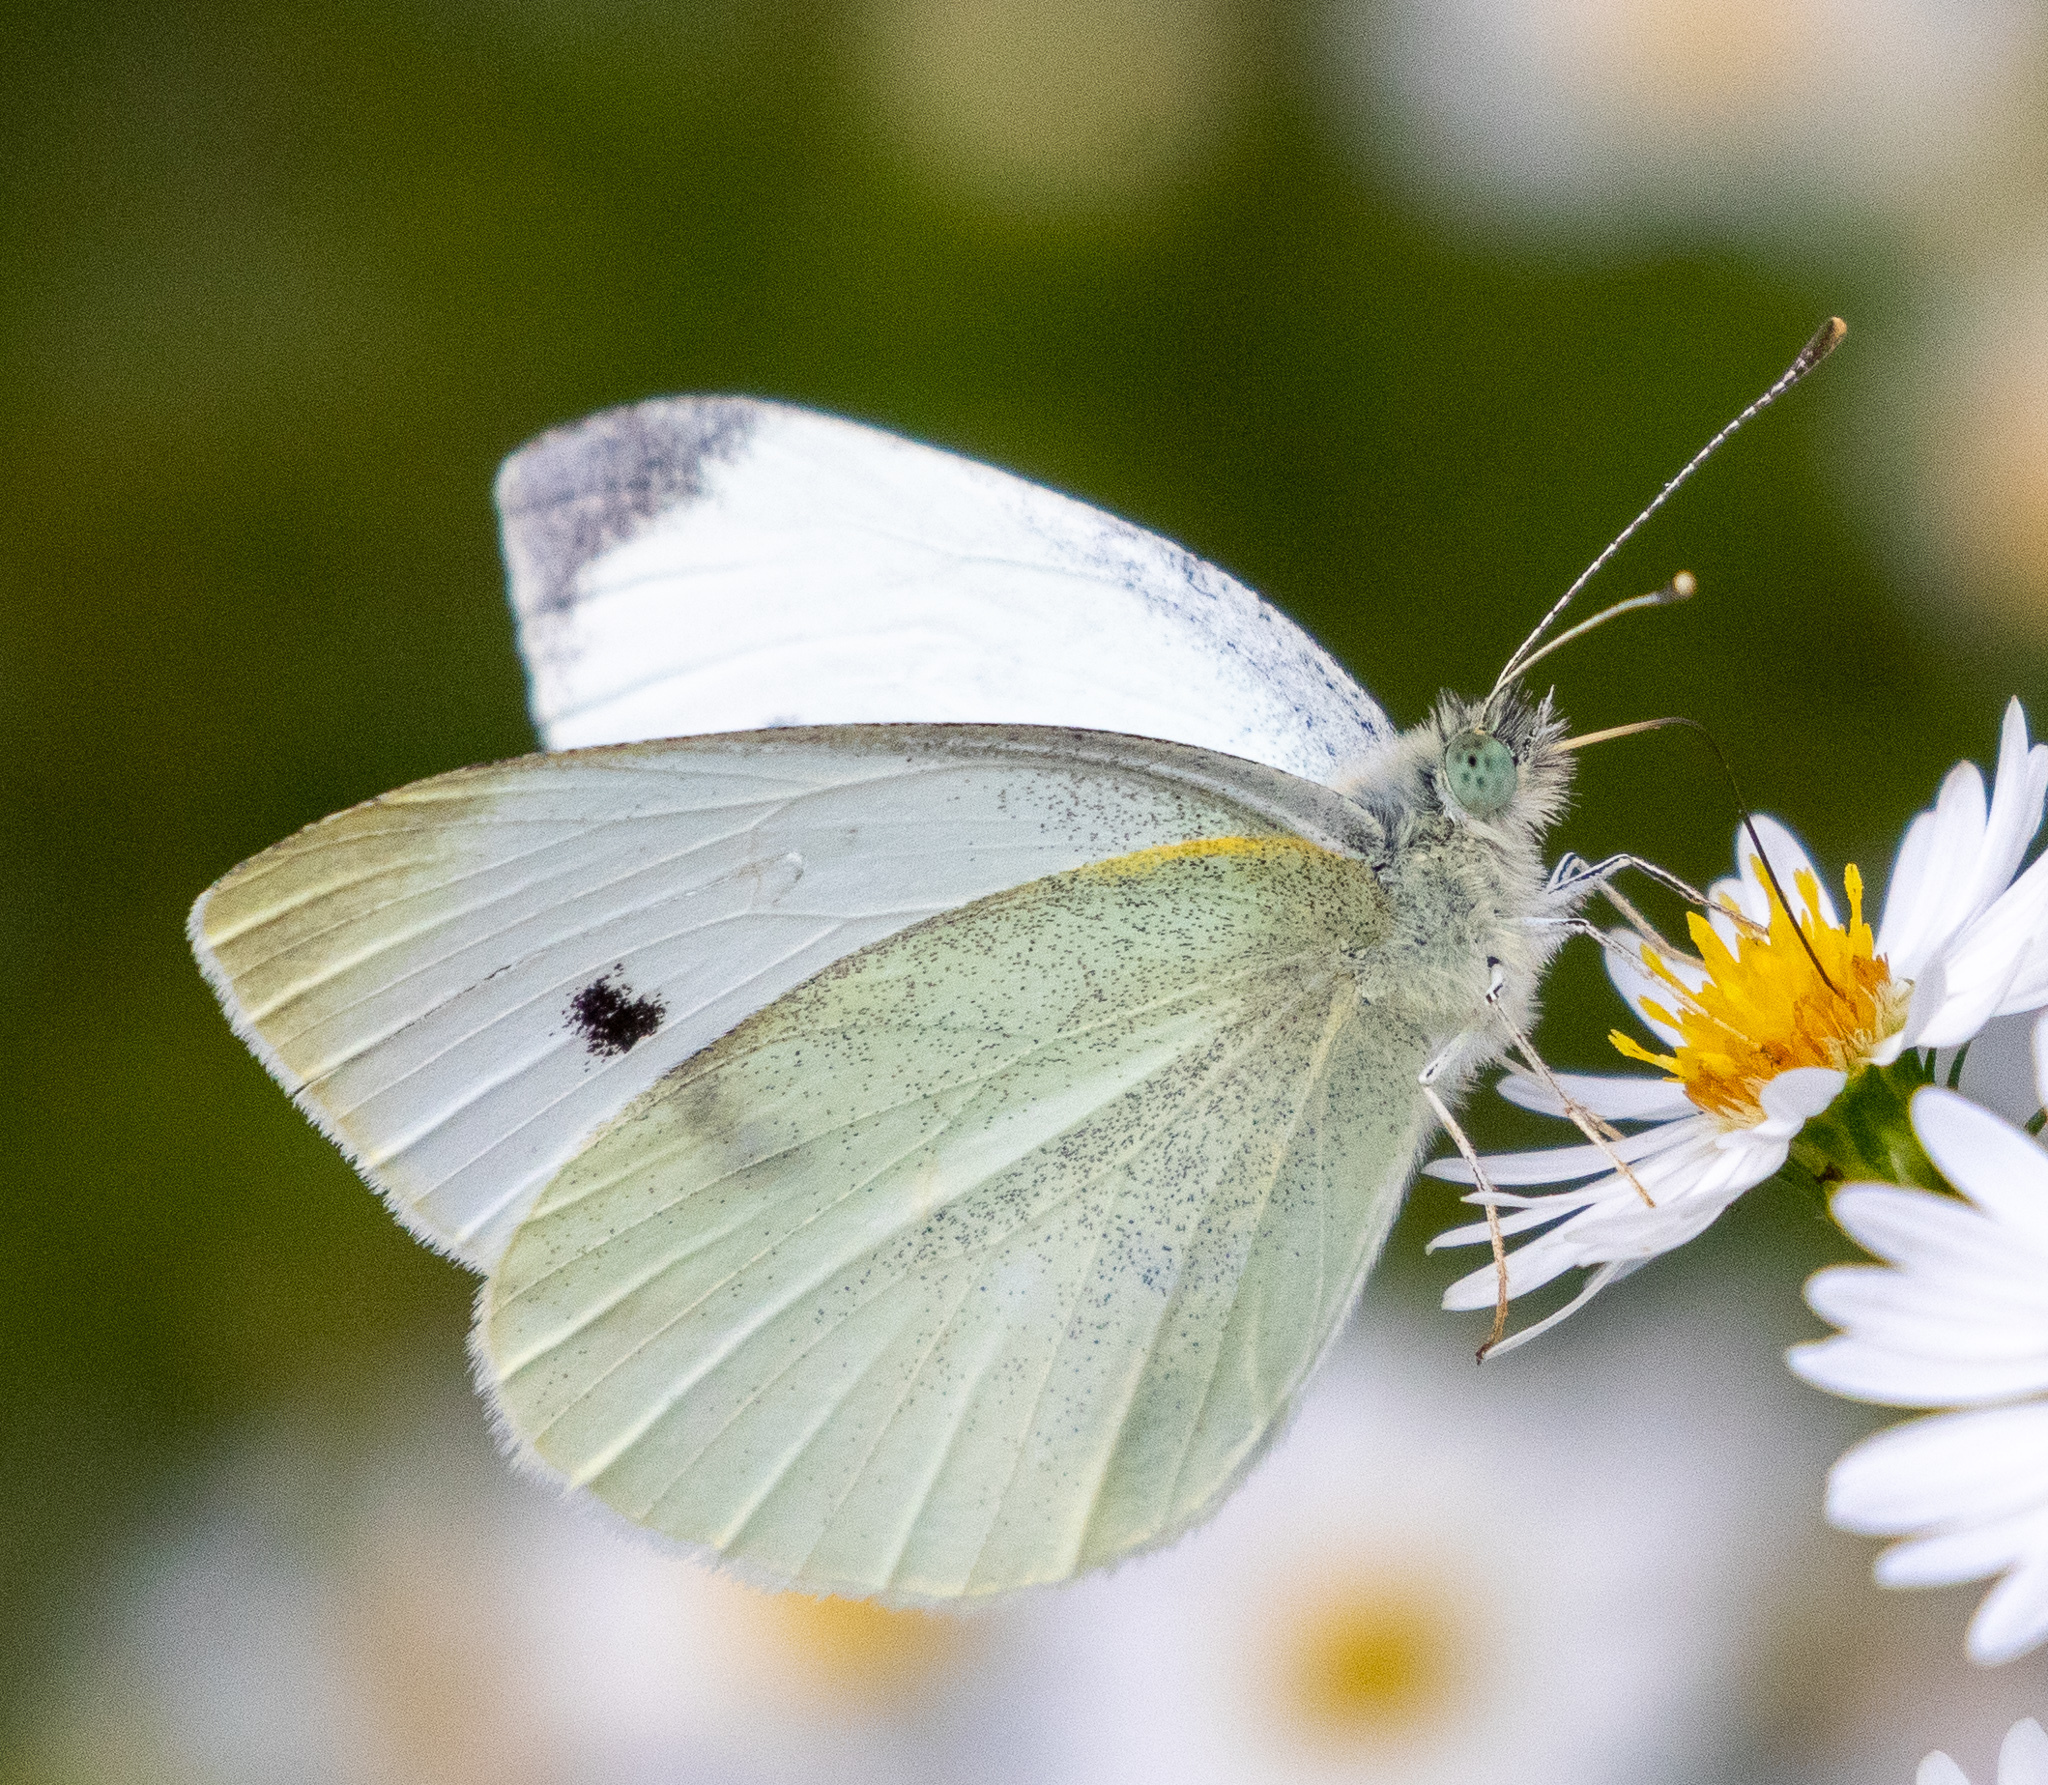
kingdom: Animalia
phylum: Arthropoda
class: Insecta
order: Lepidoptera
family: Pieridae
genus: Pieris
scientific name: Pieris rapae
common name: Small white
